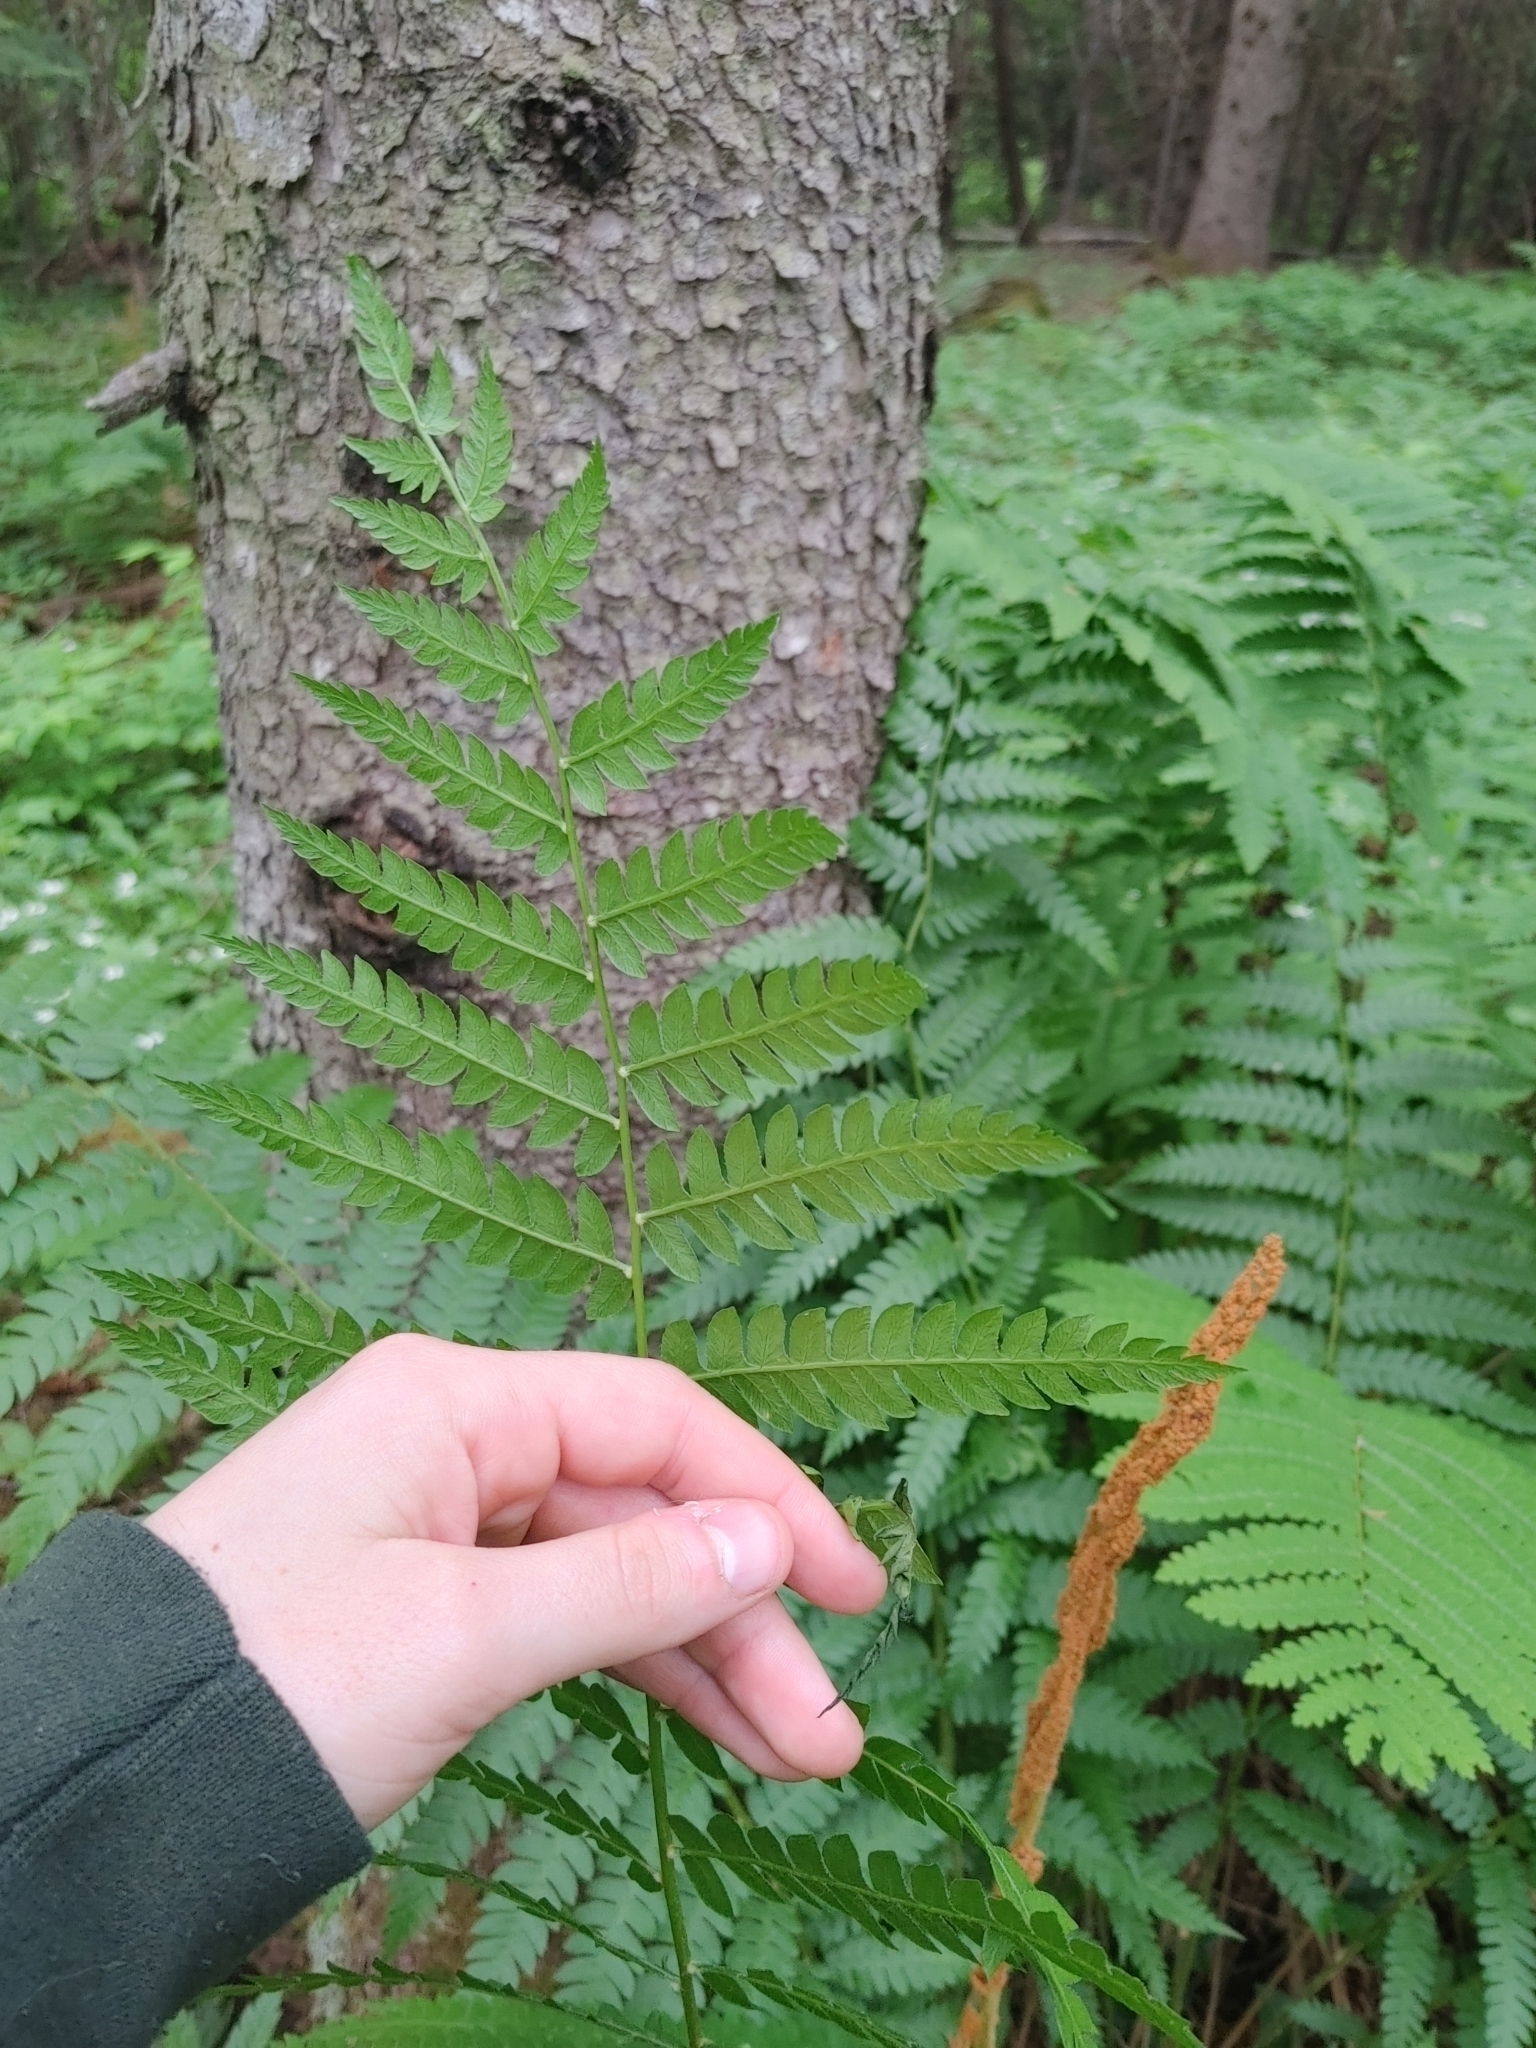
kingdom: Plantae
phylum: Tracheophyta
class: Polypodiopsida
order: Osmundales
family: Osmundaceae
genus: Osmundastrum
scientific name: Osmundastrum cinnamomeum
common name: Cinnamon fern
